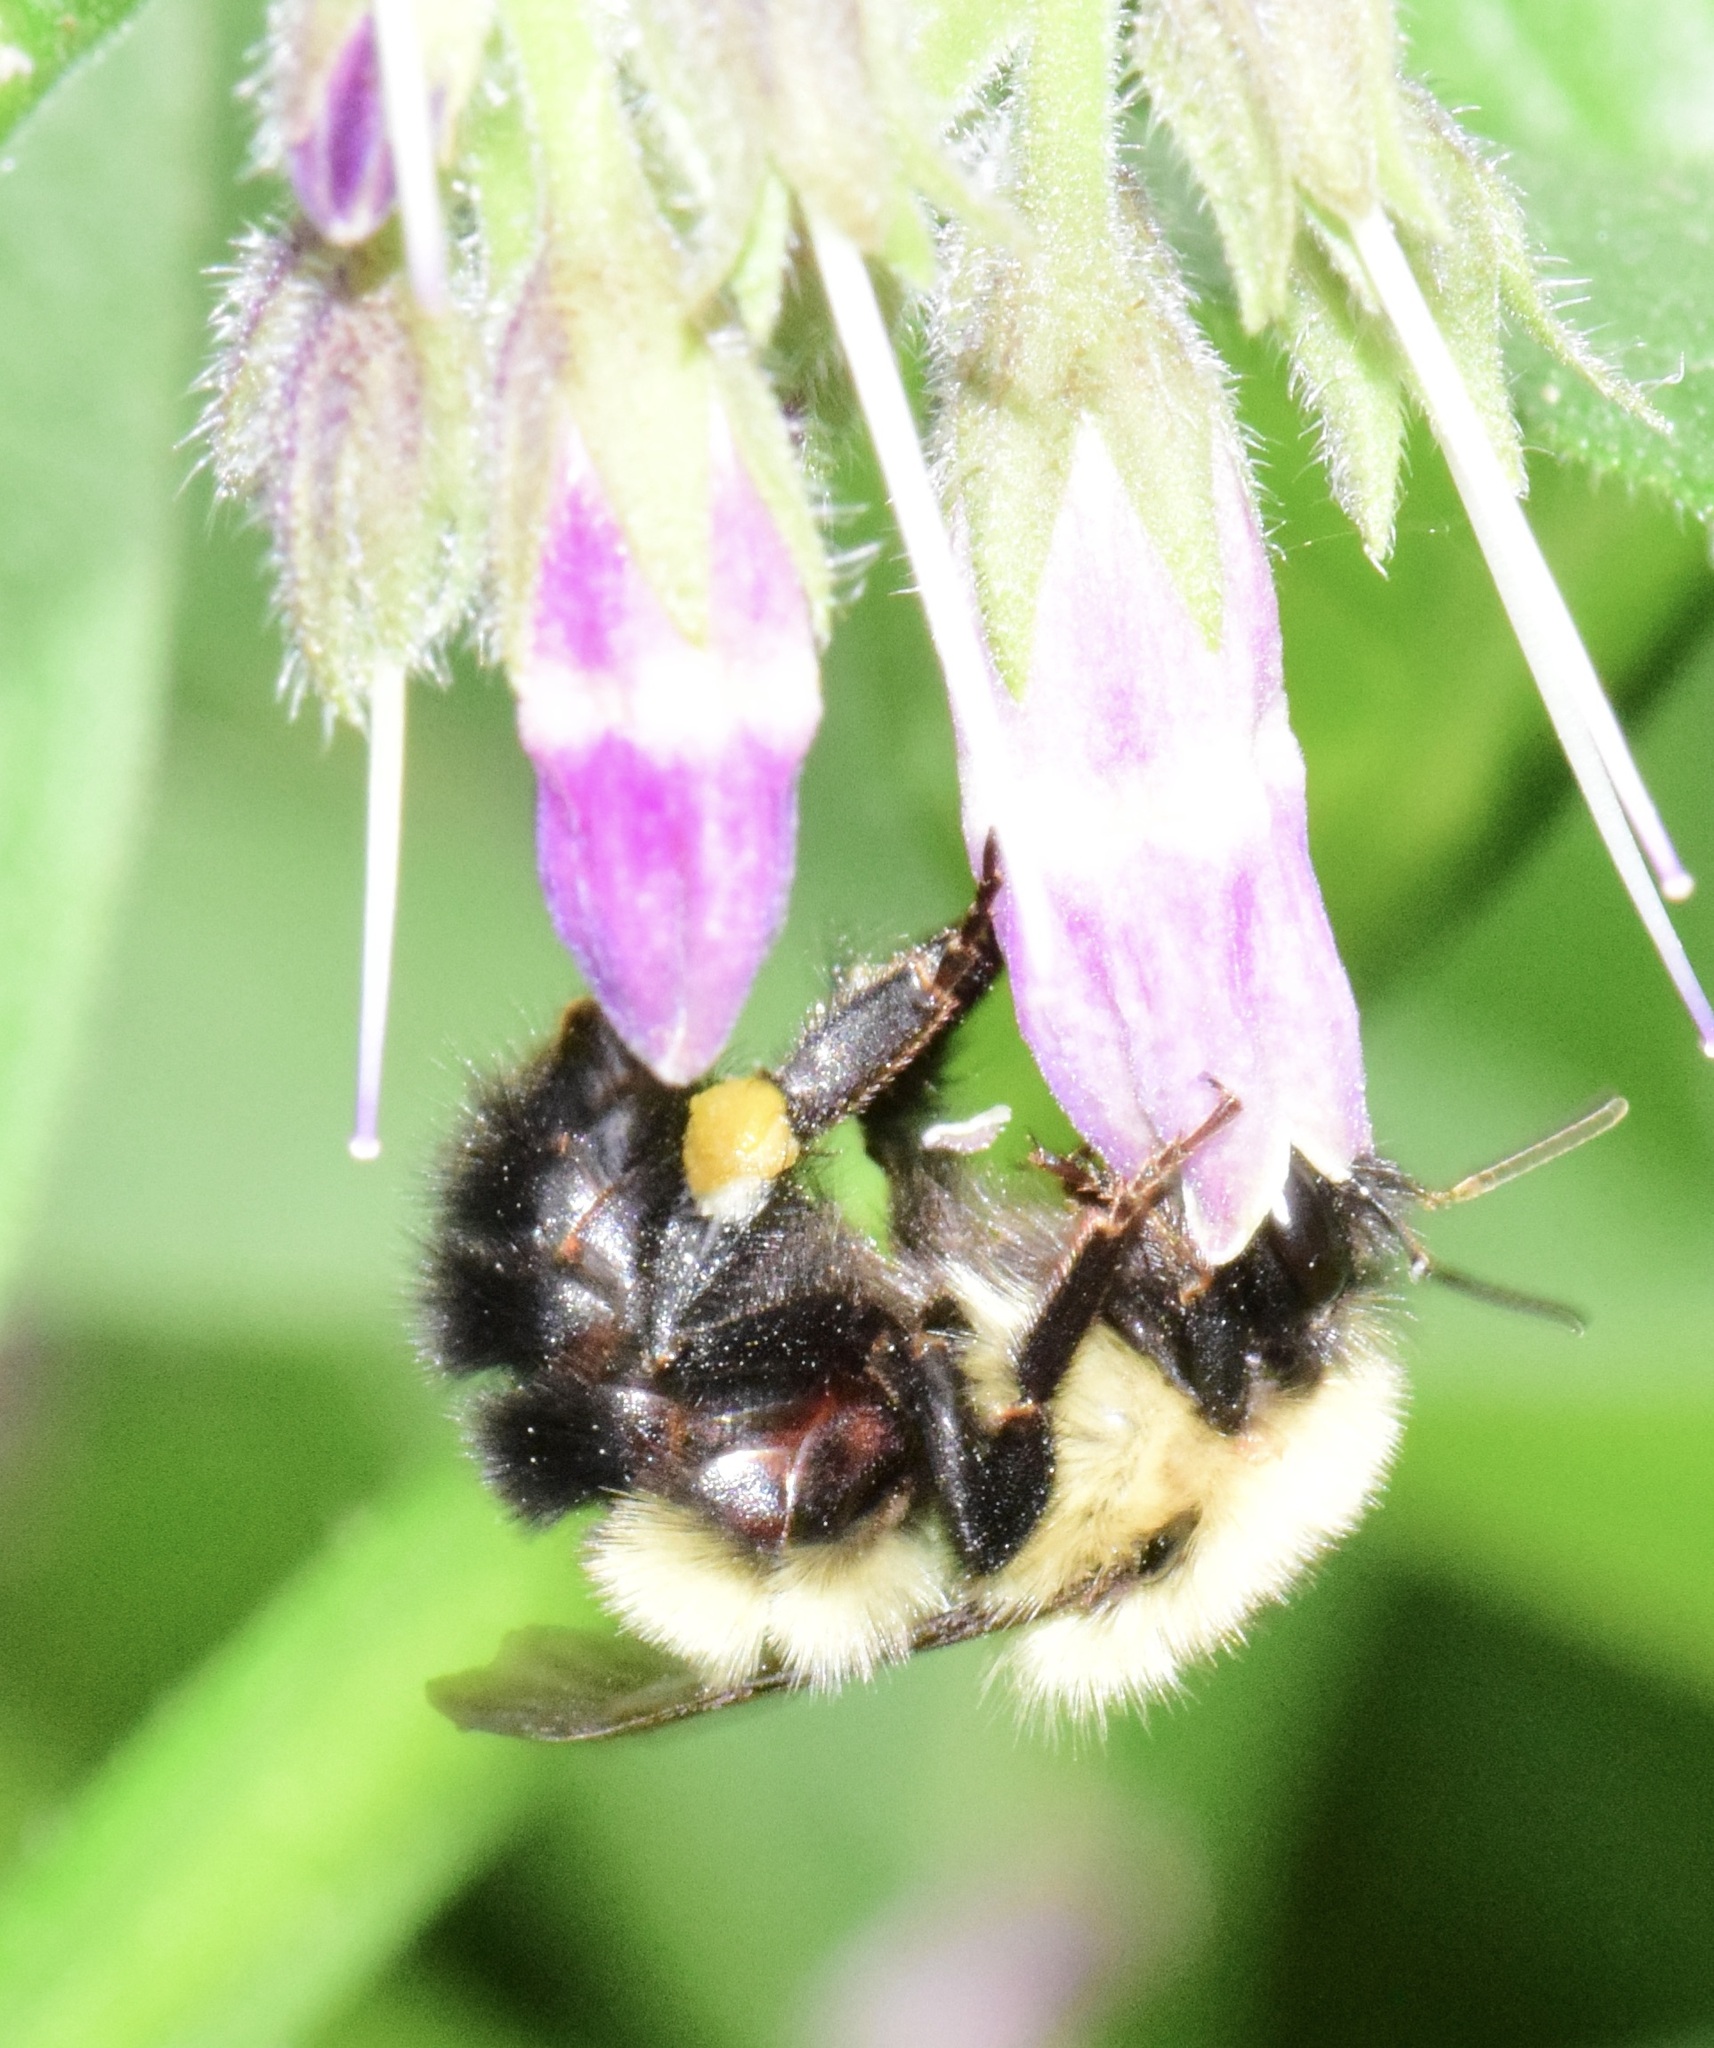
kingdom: Animalia
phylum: Arthropoda
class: Insecta
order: Hymenoptera
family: Apidae
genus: Pyrobombus
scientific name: Pyrobombus
